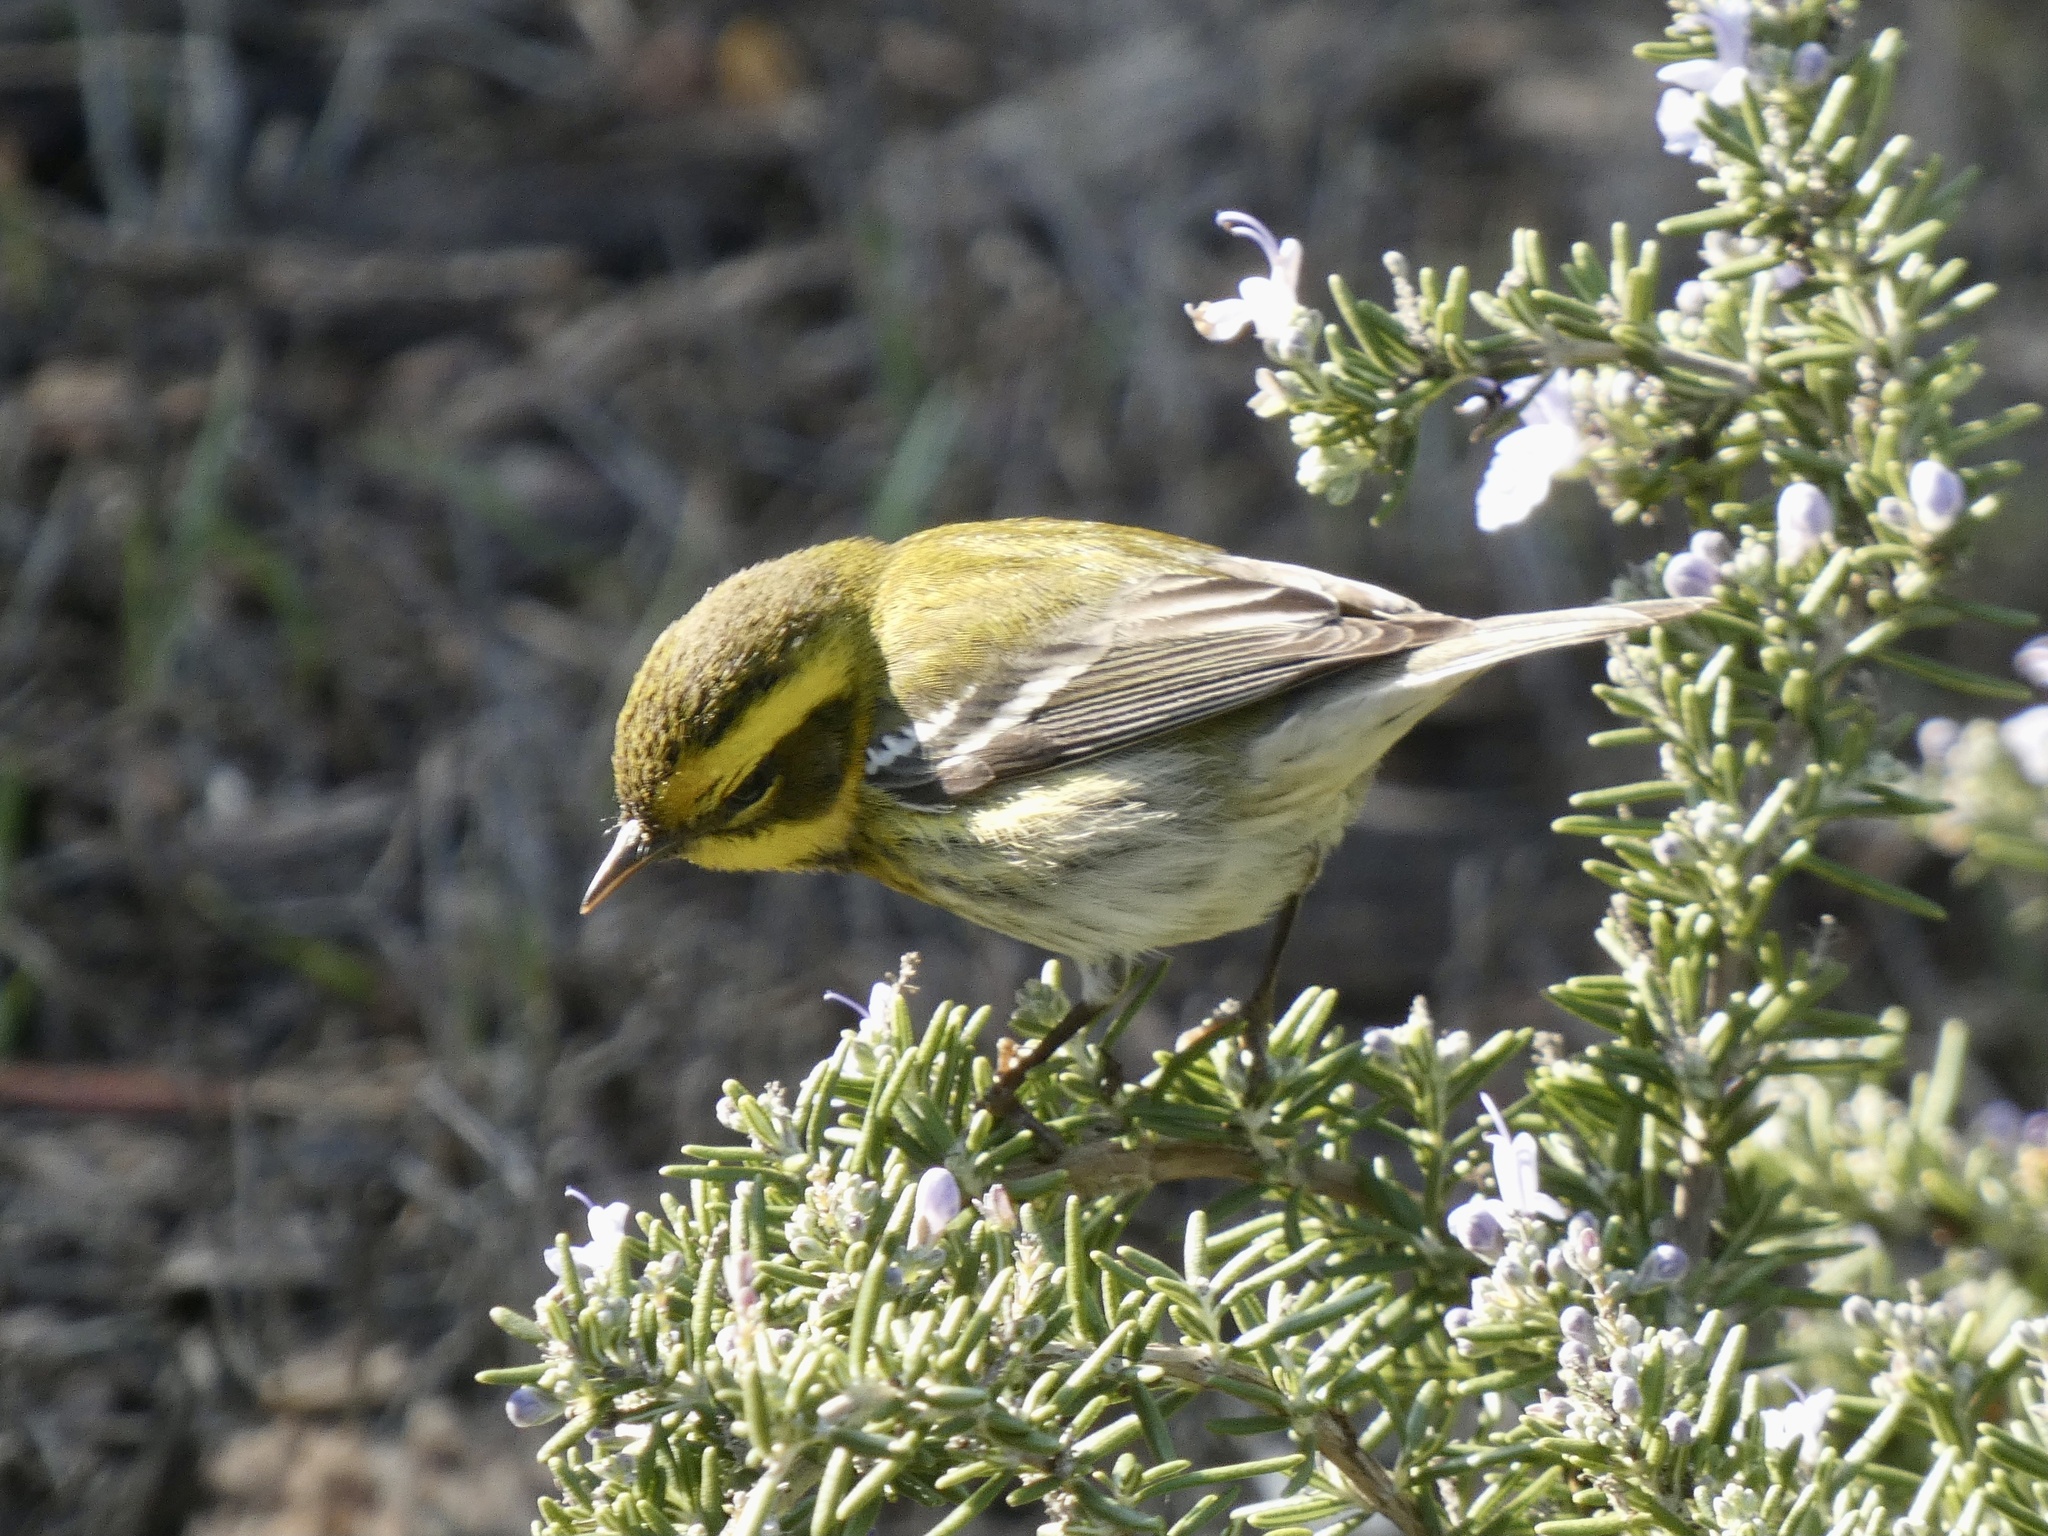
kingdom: Animalia
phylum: Chordata
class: Aves
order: Passeriformes
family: Parulidae
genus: Setophaga
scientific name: Setophaga townsendi
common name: Townsend's warbler
